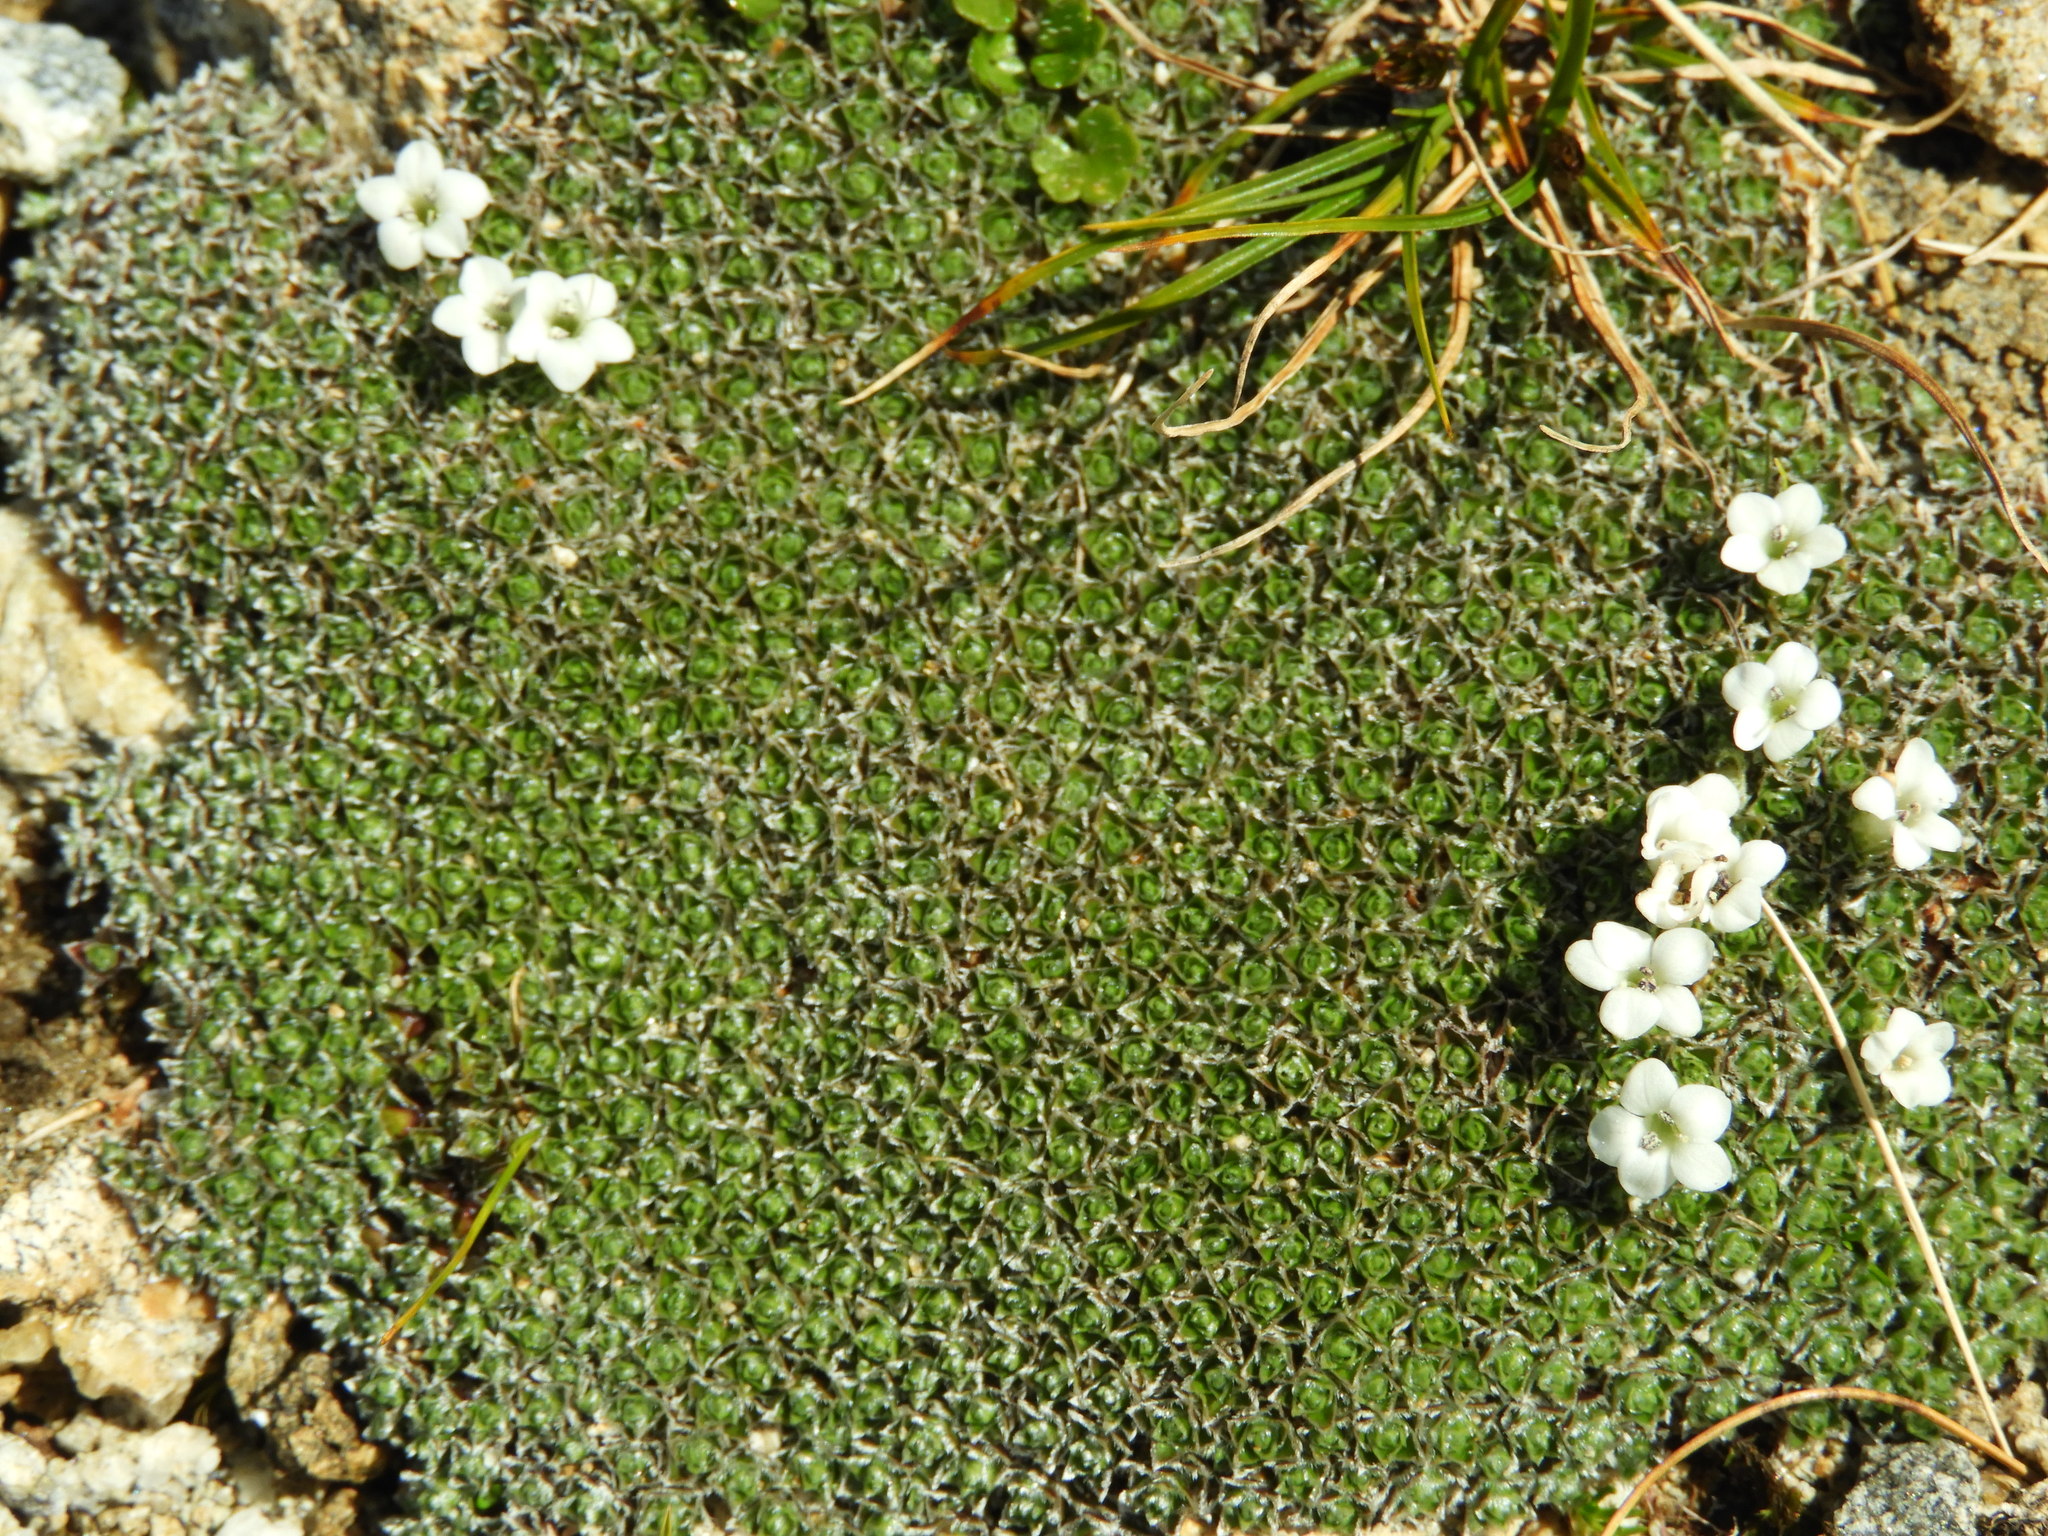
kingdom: Plantae
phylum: Tracheophyta
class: Magnoliopsida
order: Lamiales
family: Plantaginaceae
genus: Veronica
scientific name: Veronica ciliolata
